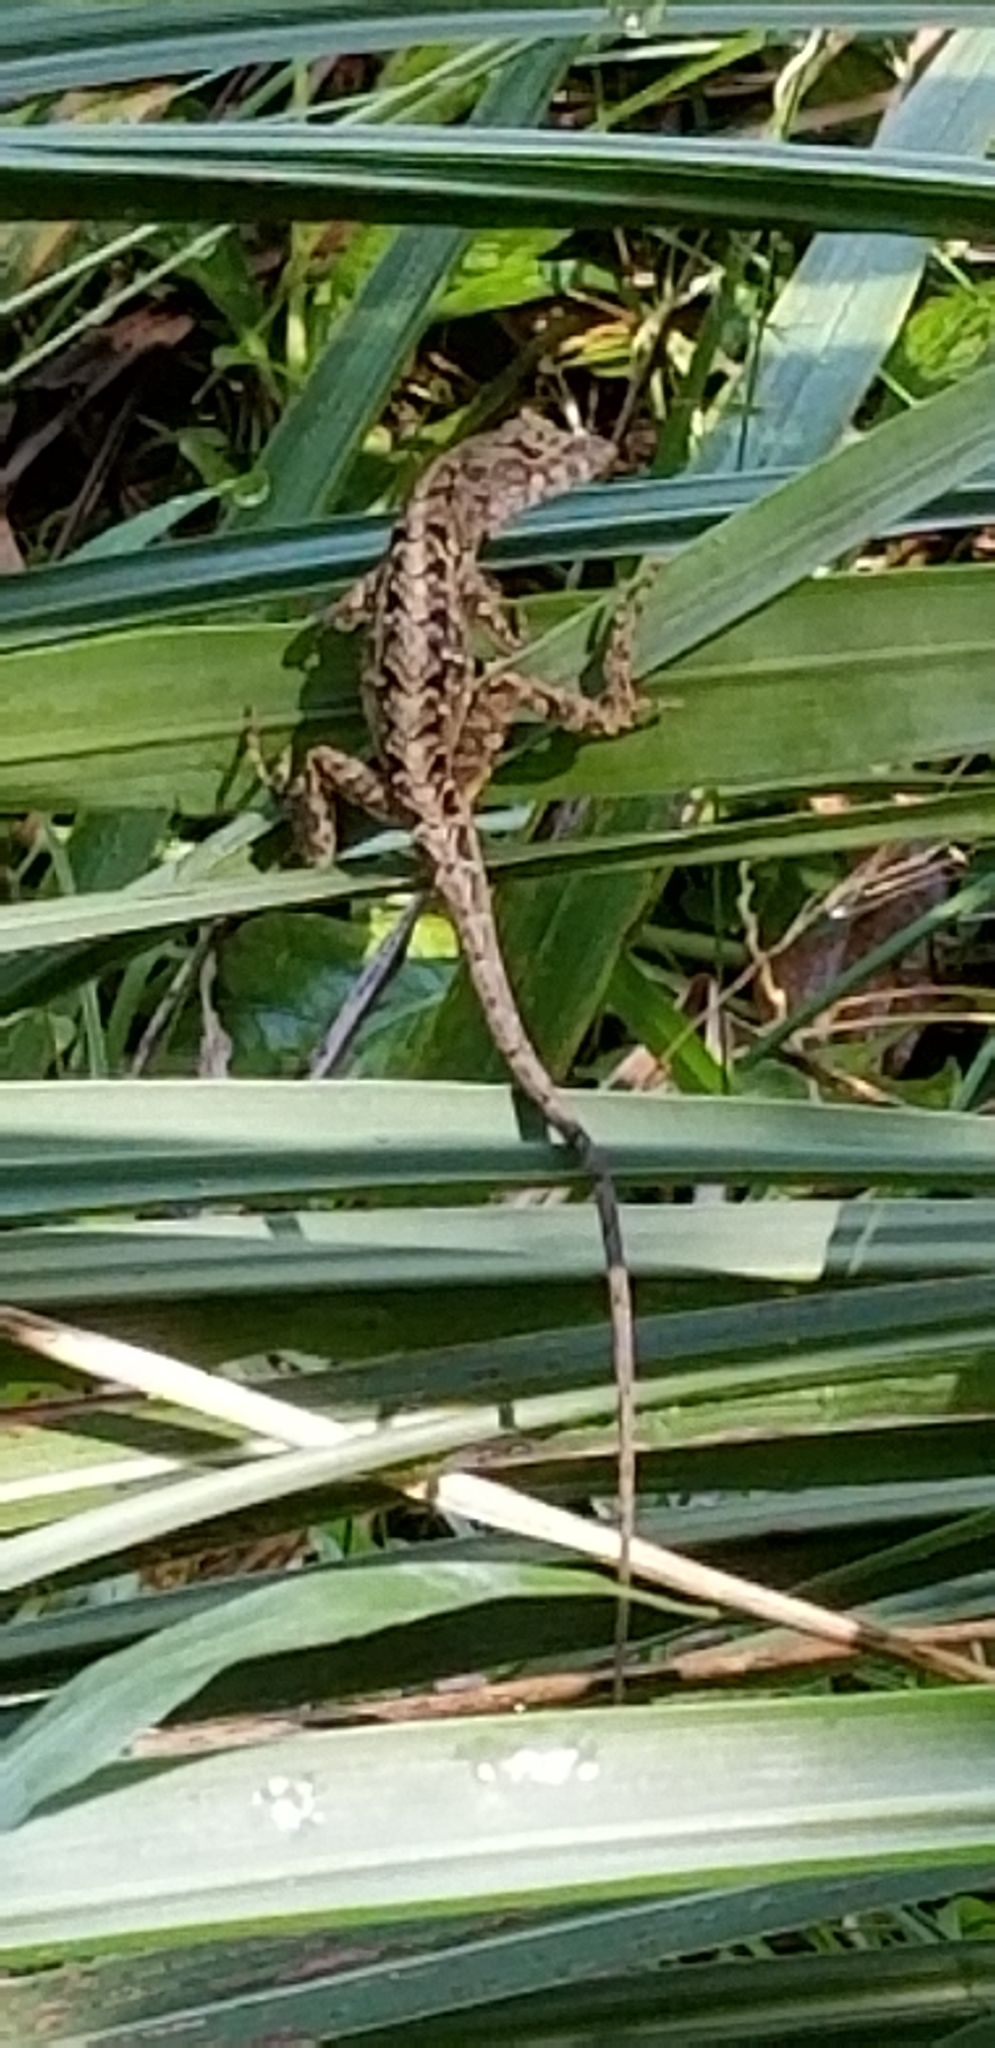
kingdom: Animalia
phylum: Chordata
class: Squamata
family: Dactyloidae
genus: Anolis
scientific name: Anolis sagrei
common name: Brown anole
